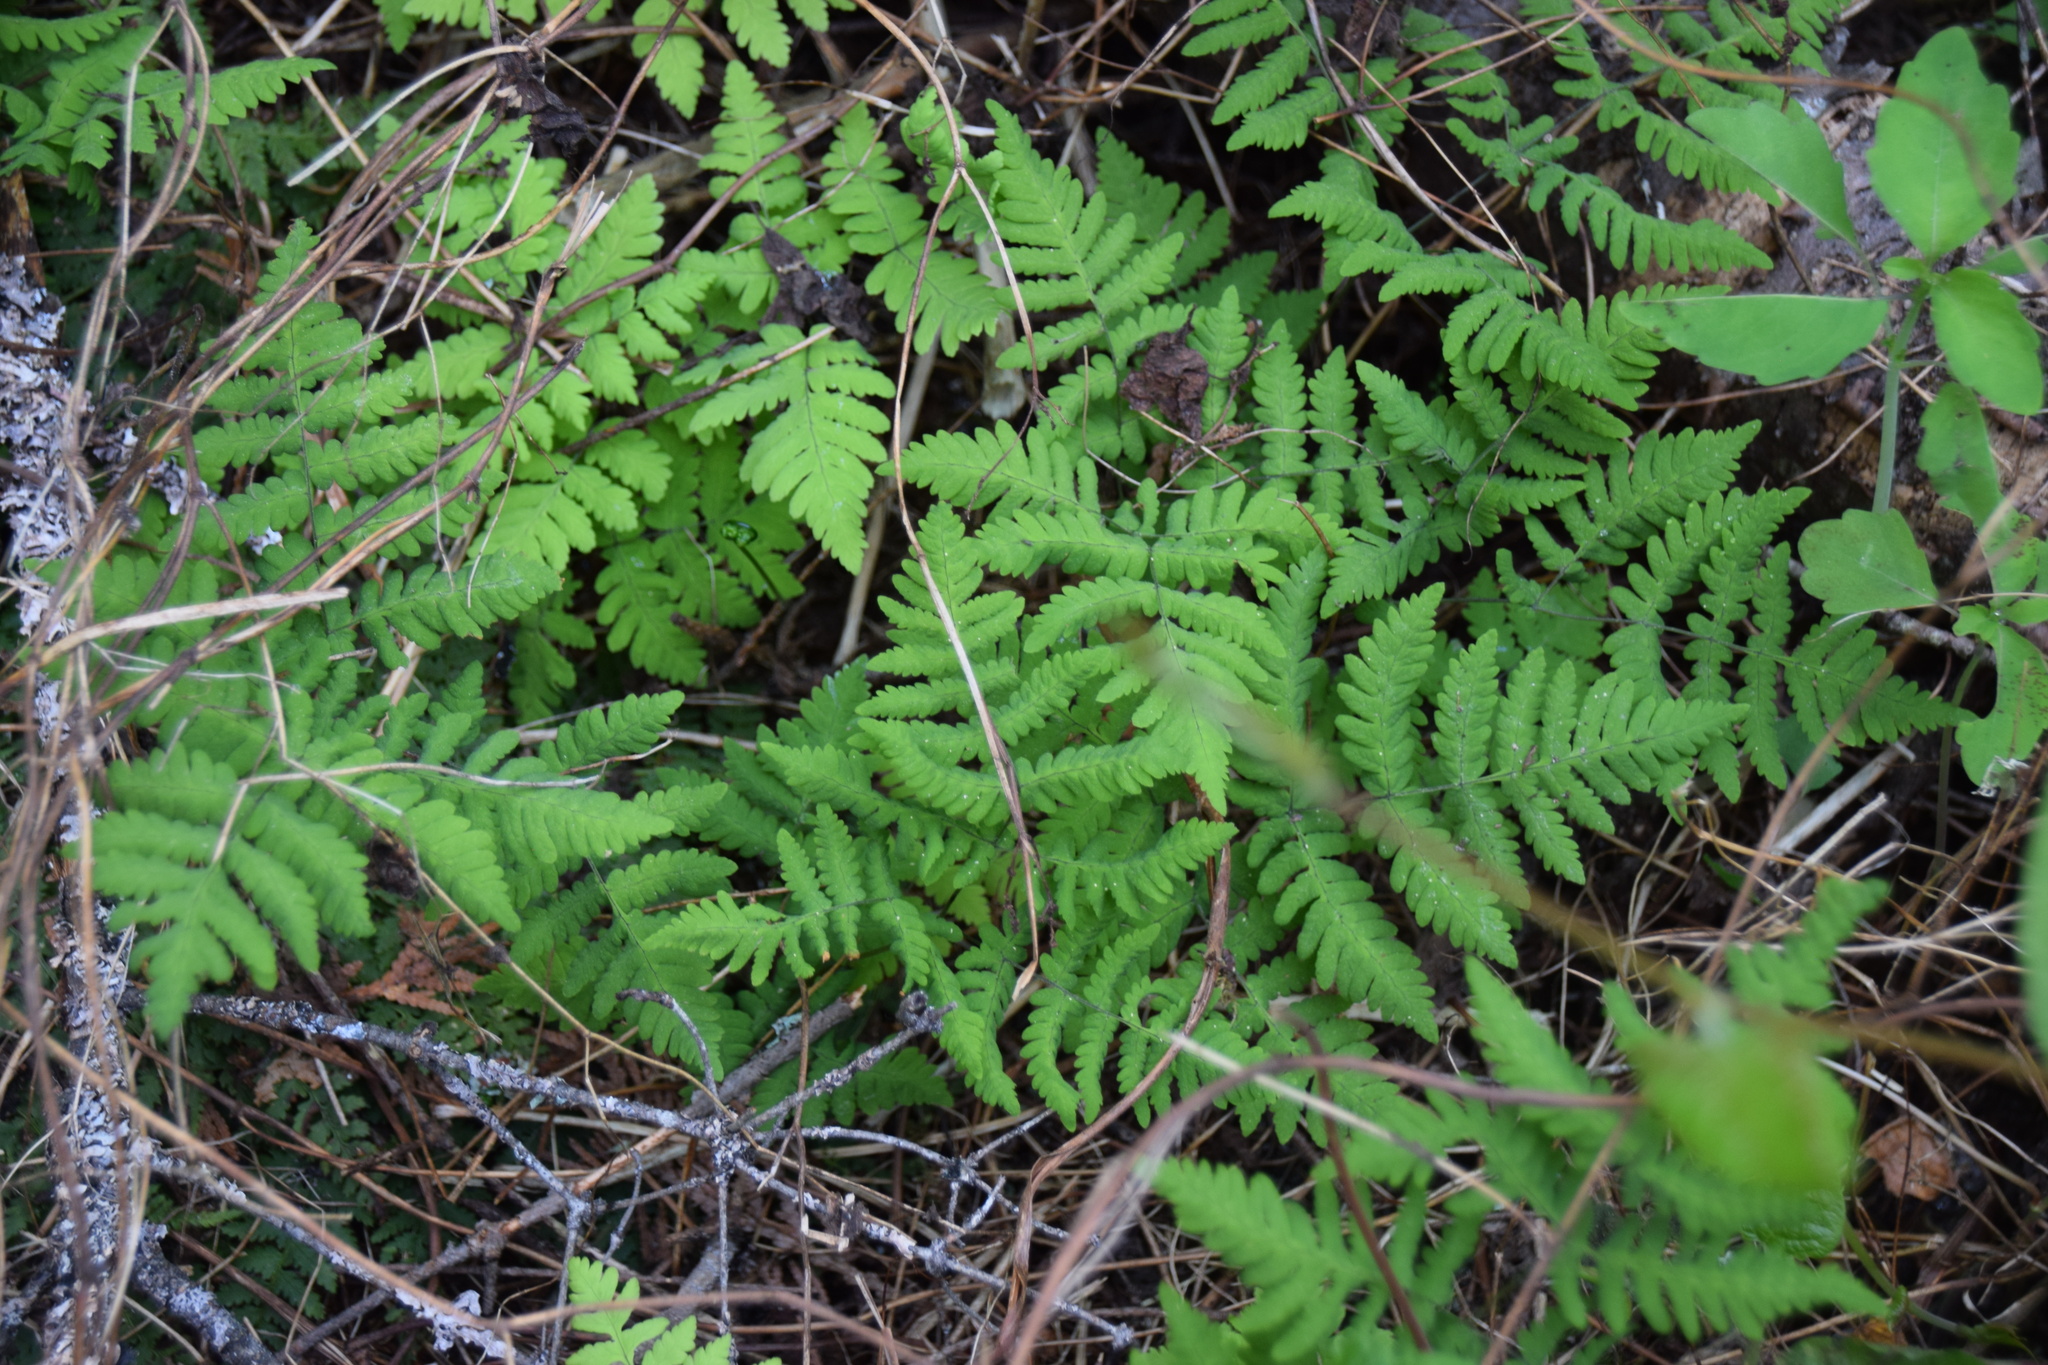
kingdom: Plantae
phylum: Tracheophyta
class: Polypodiopsida
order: Polypodiales
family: Cystopteridaceae
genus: Gymnocarpium
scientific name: Gymnocarpium dryopteris
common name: Oak fern
